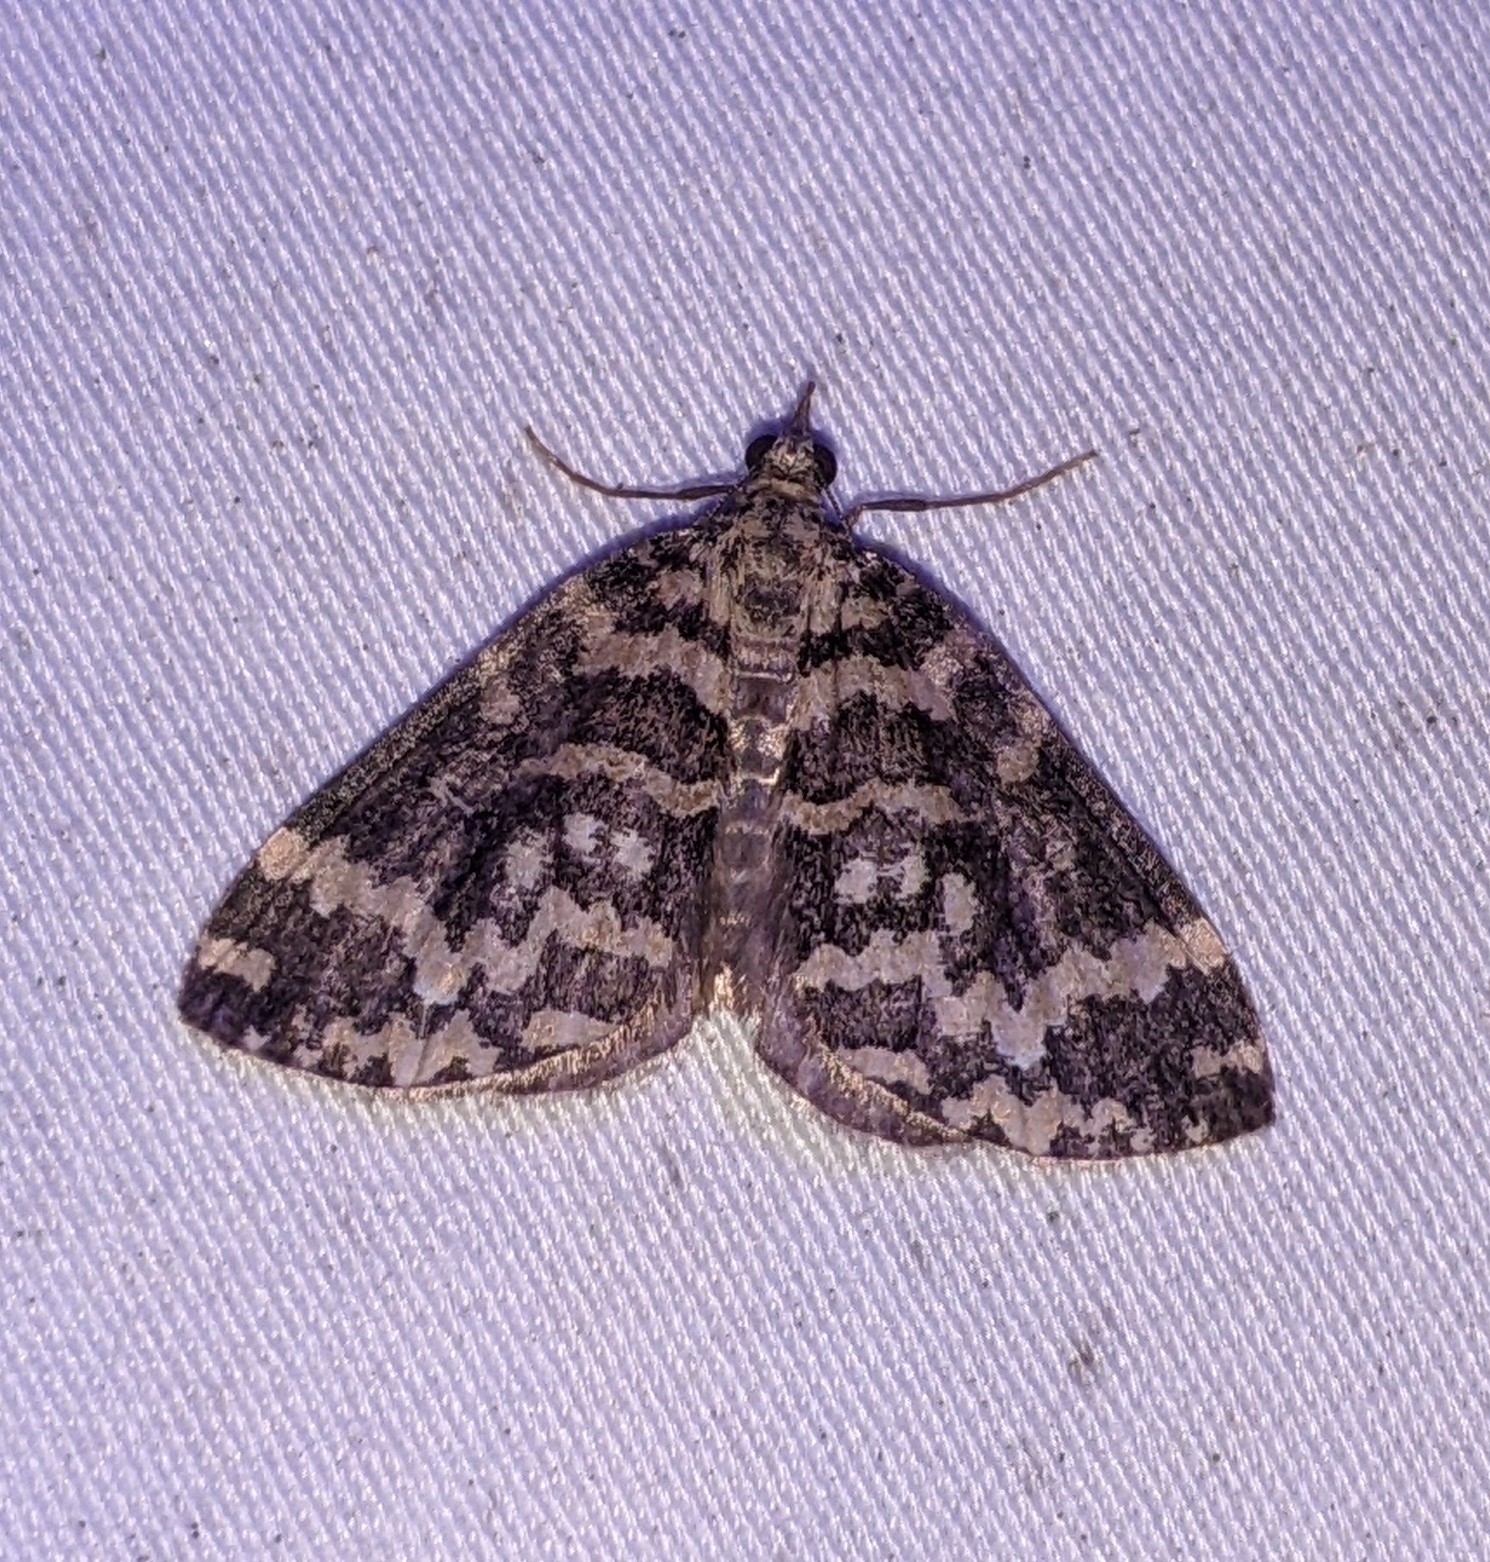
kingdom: Animalia
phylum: Arthropoda
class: Insecta
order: Lepidoptera
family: Geometridae
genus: Hydriomena
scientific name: Hydriomena speciosata
